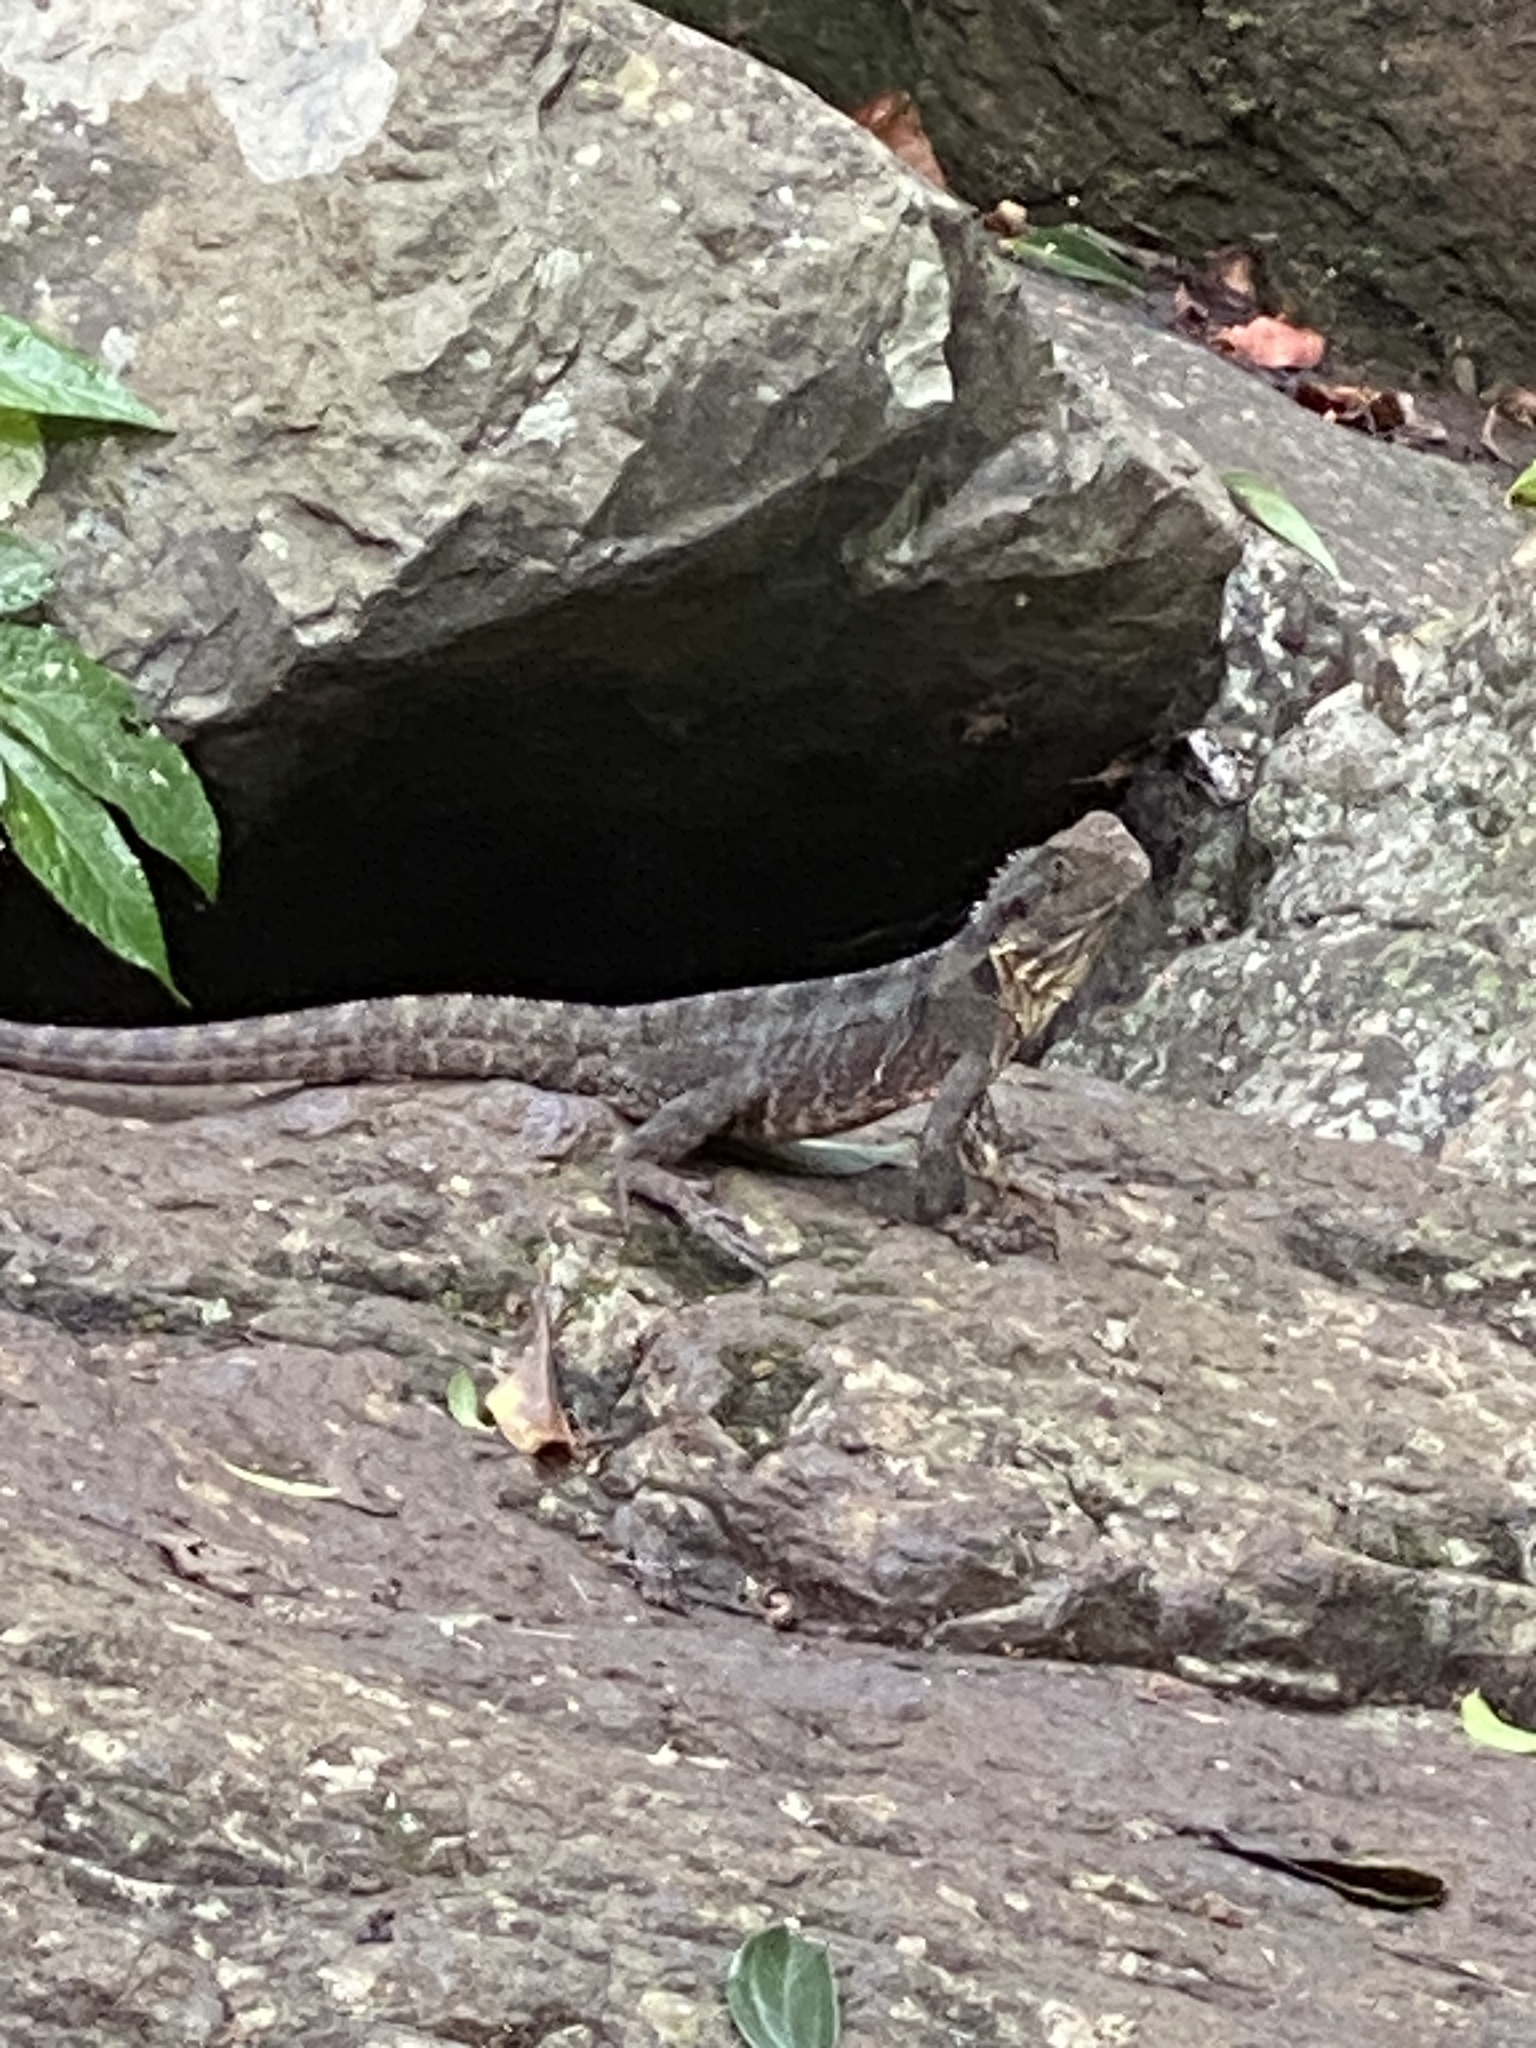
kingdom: Animalia
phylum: Chordata
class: Squamata
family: Agamidae
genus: Intellagama
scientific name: Intellagama lesueurii
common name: Eastern water dragon
